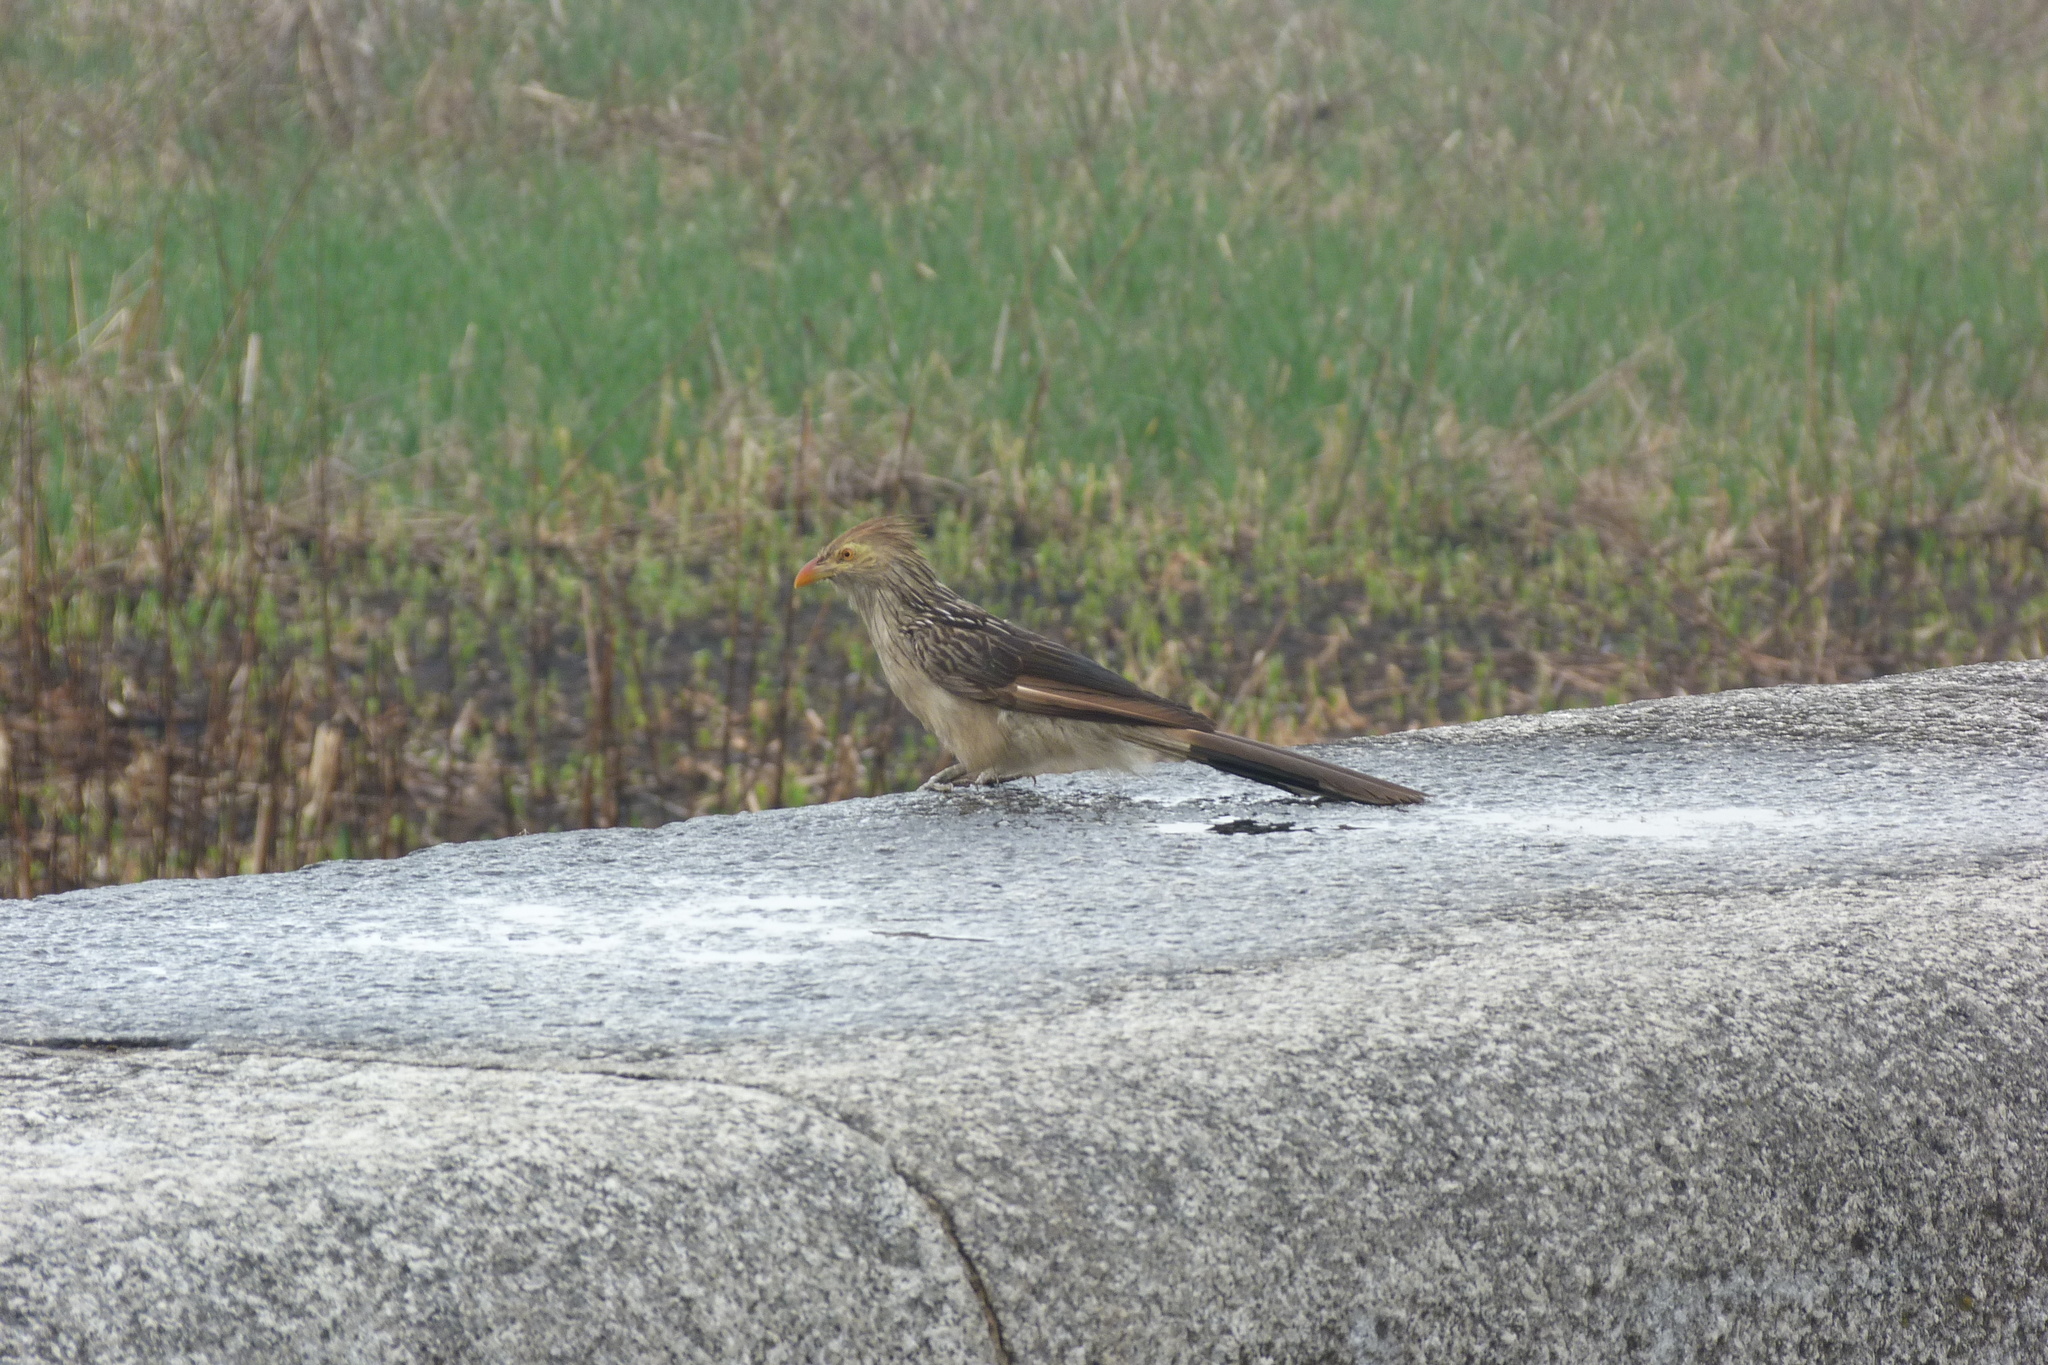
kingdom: Animalia
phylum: Chordata
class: Aves
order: Cuculiformes
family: Cuculidae
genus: Guira
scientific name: Guira guira
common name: Guira cuckoo
